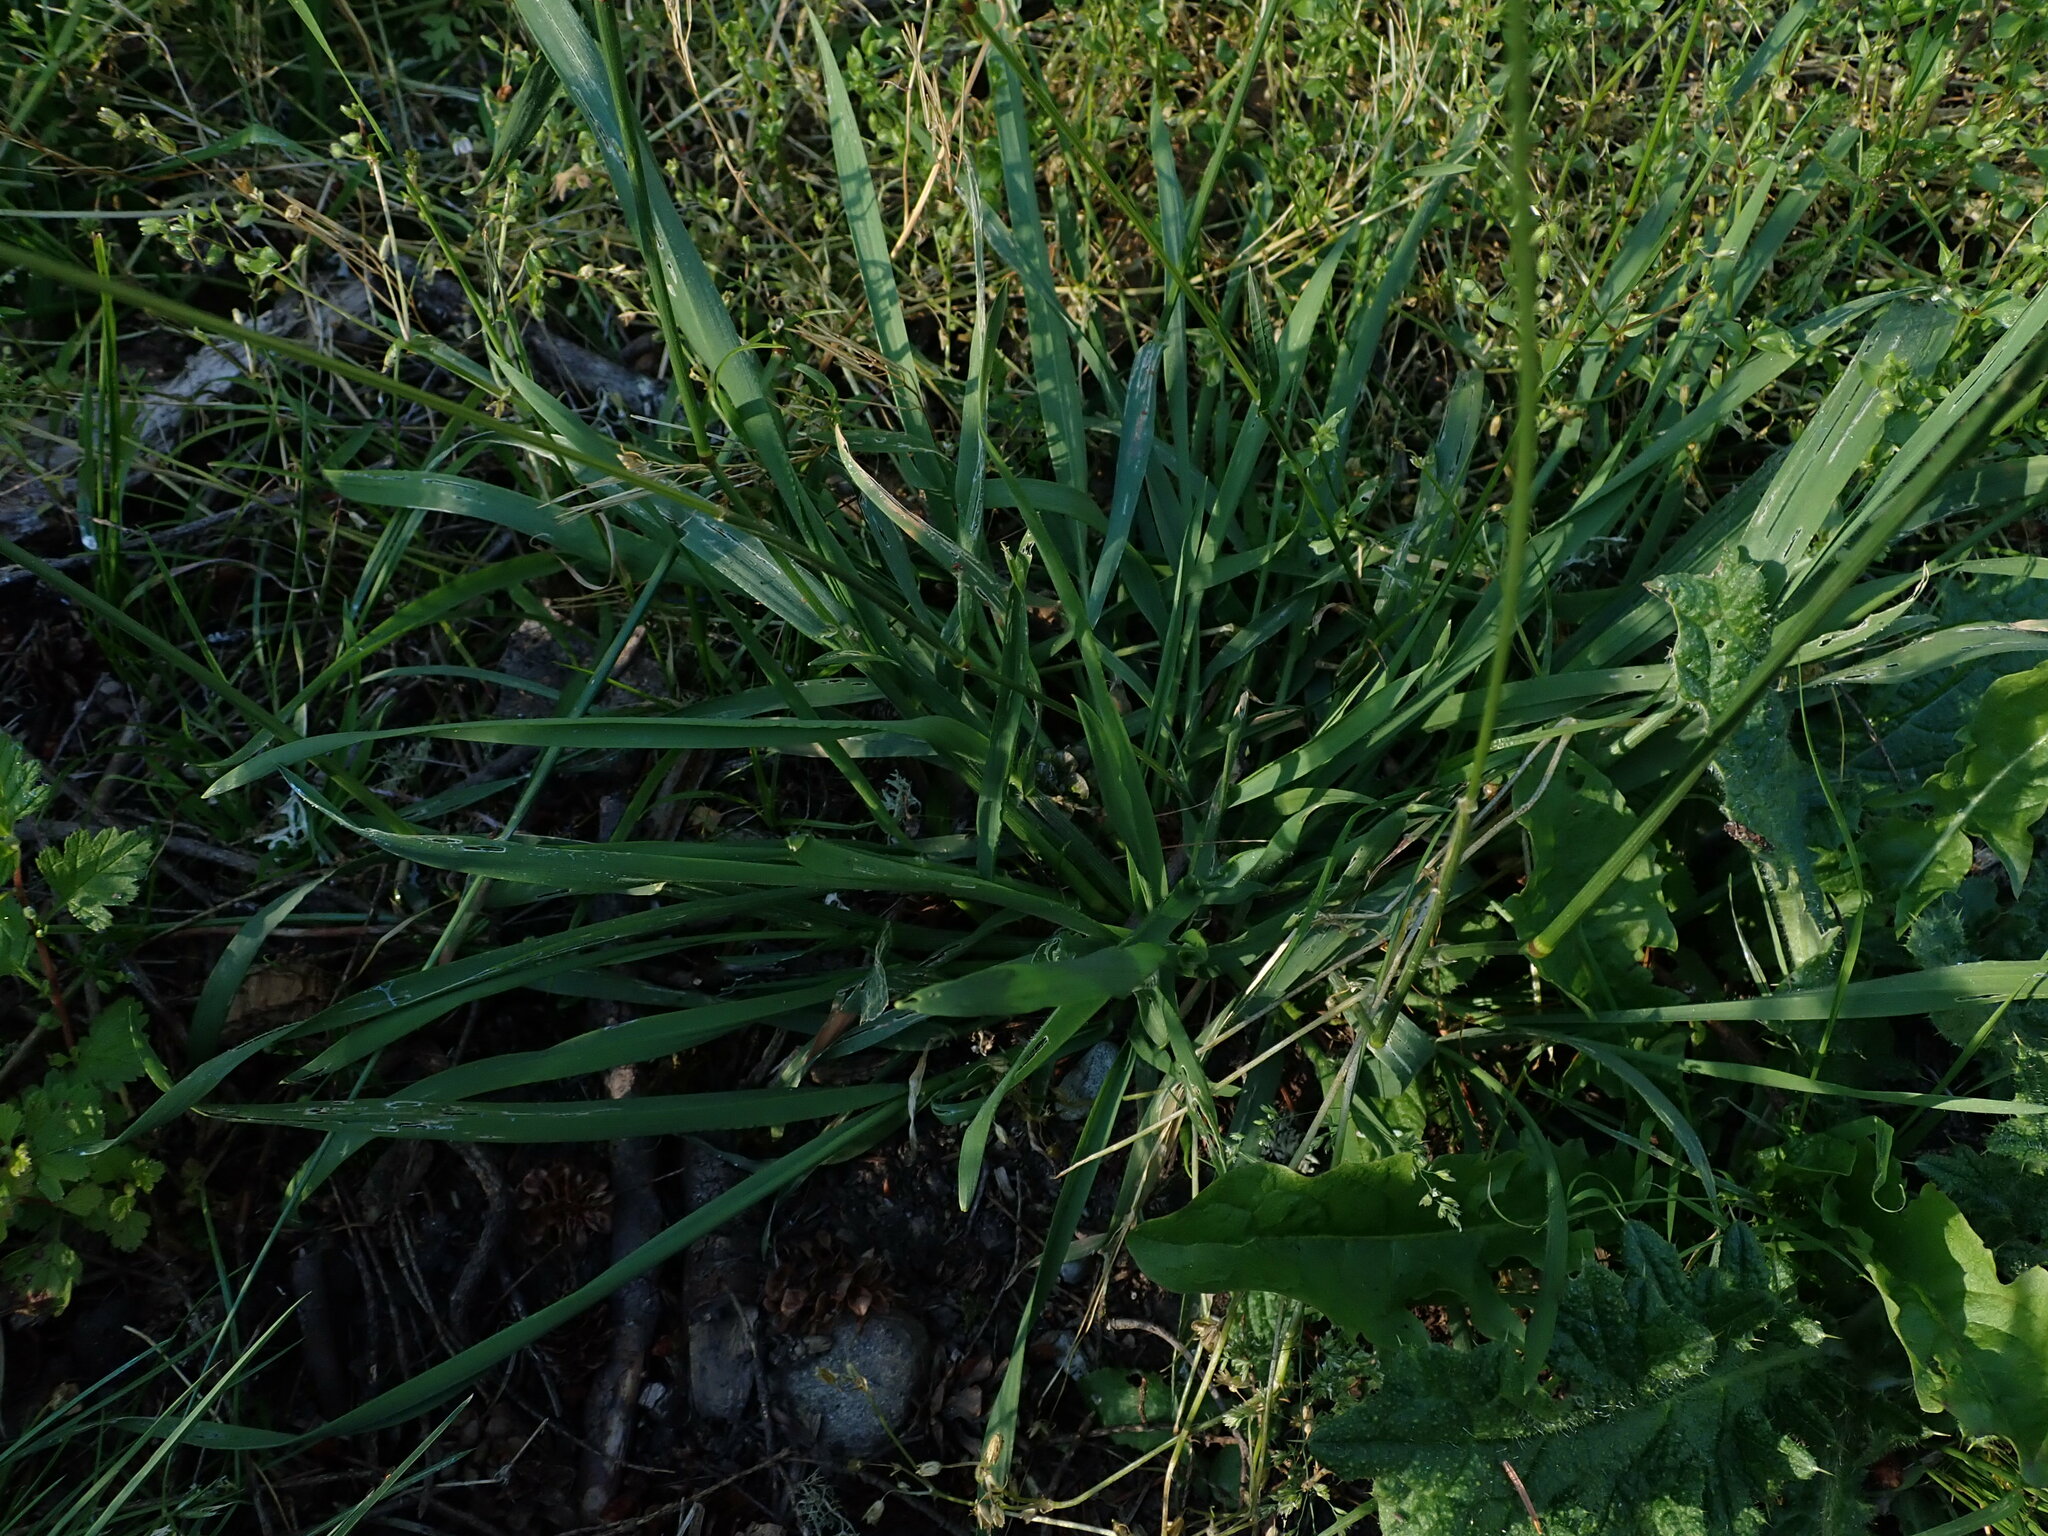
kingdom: Plantae
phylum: Tracheophyta
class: Liliopsida
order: Poales
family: Poaceae
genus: Anthoxanthum
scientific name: Anthoxanthum odoratum
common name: Sweet vernalgrass
